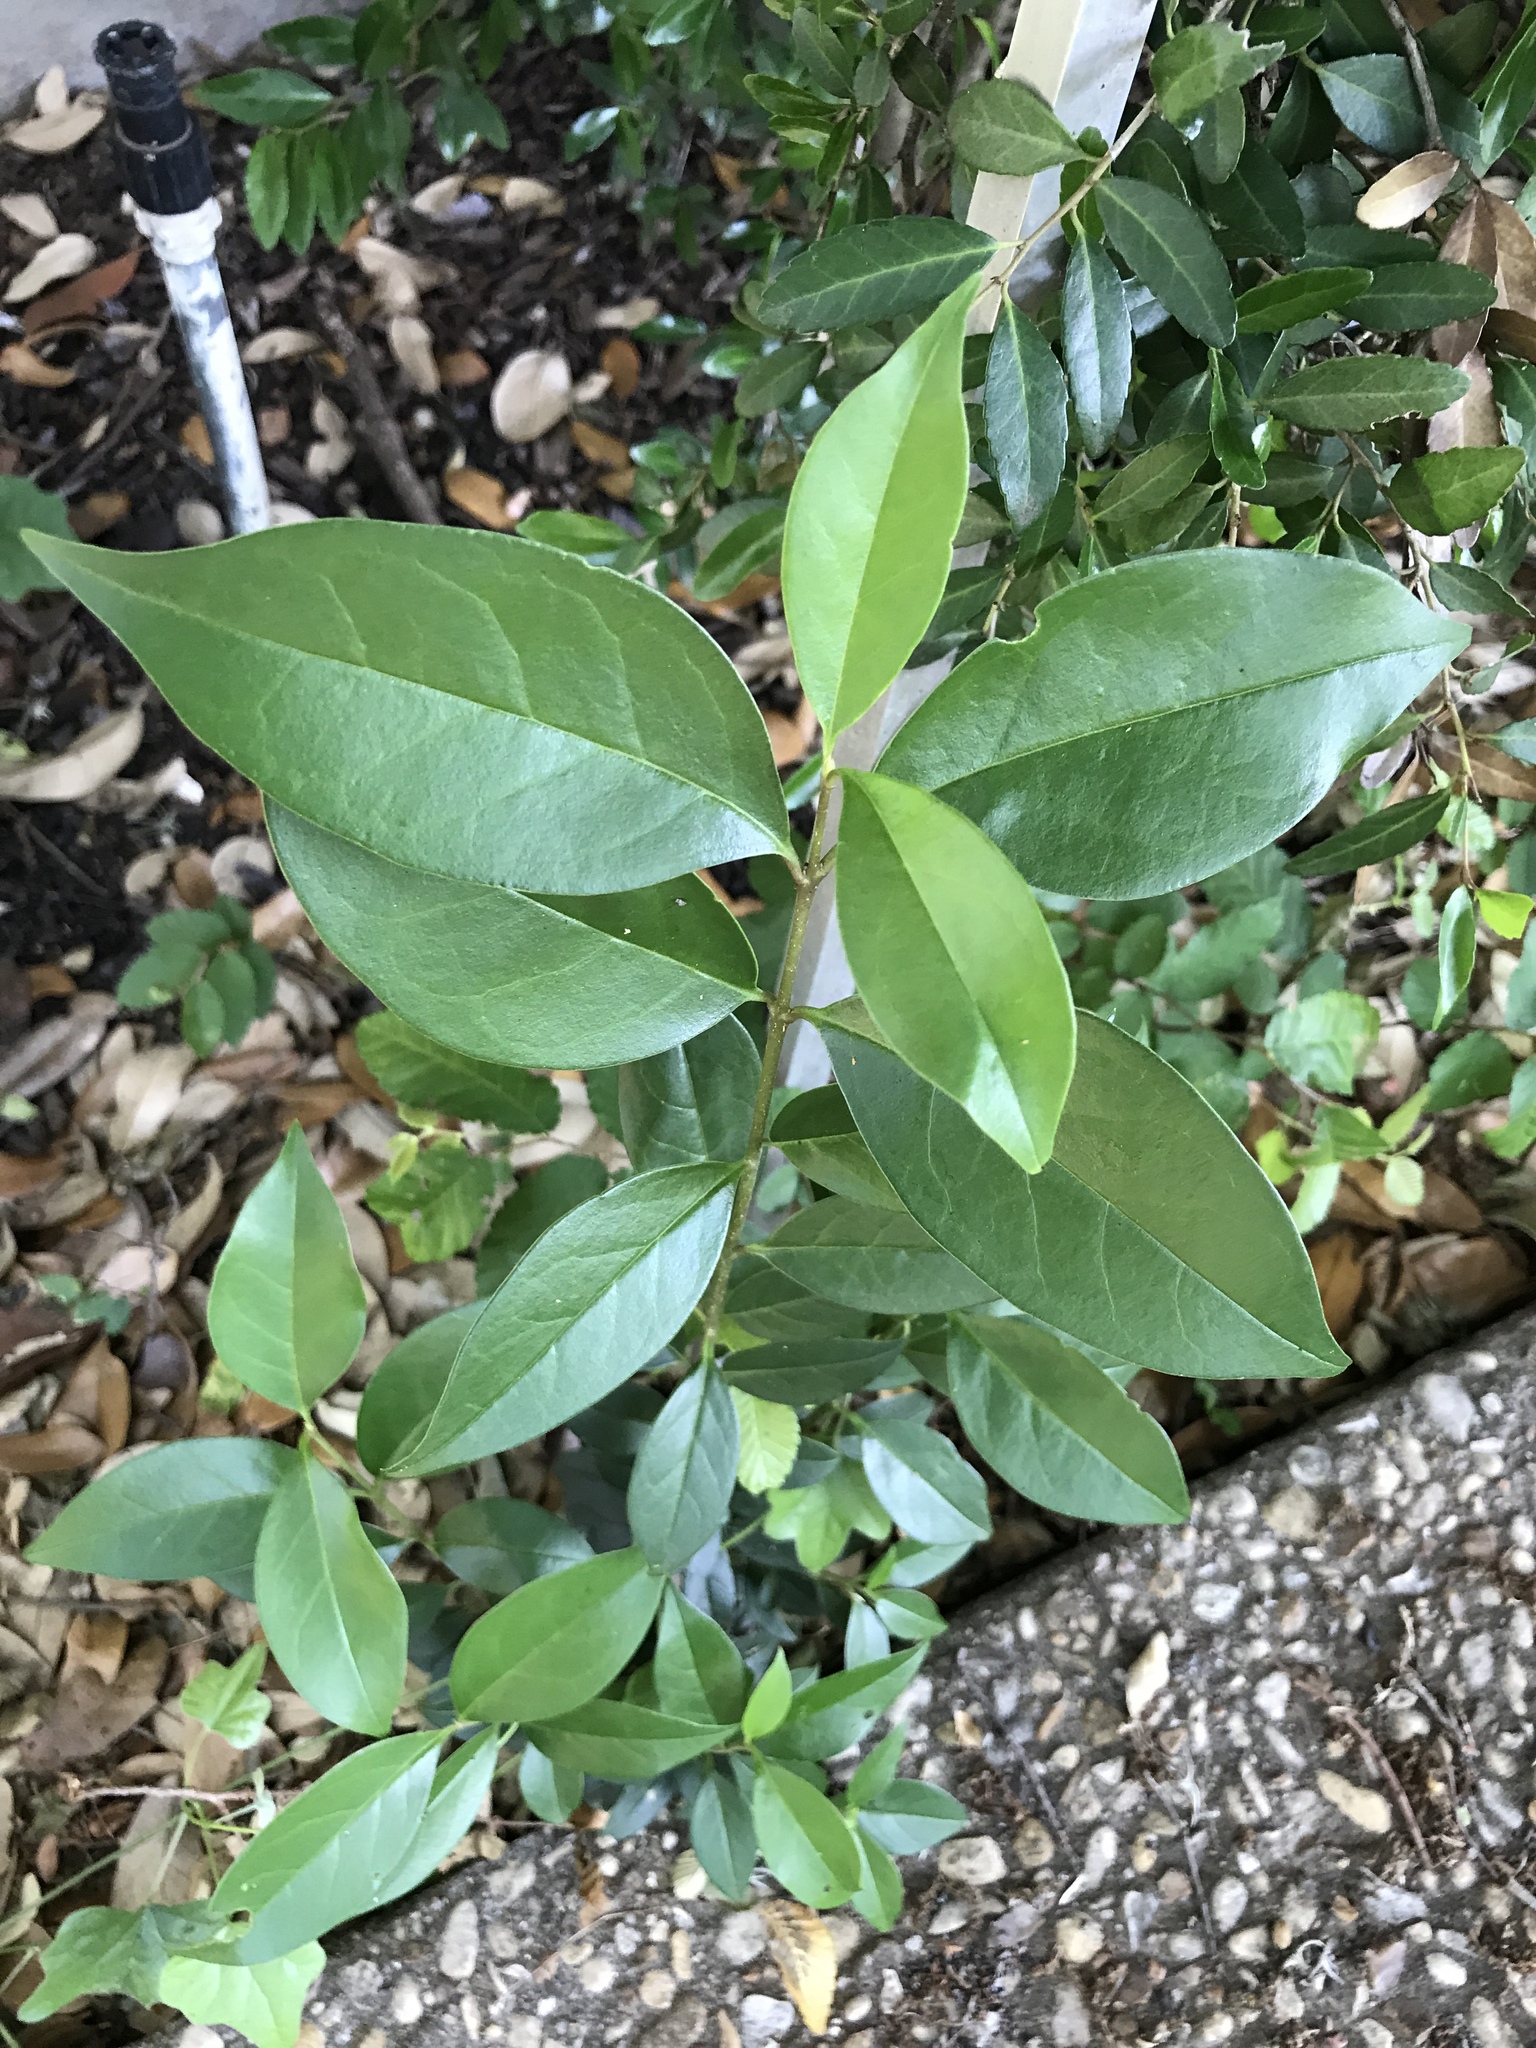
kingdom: Plantae
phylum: Tracheophyta
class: Magnoliopsida
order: Lamiales
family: Oleaceae
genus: Ligustrum
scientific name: Ligustrum lucidum
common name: Glossy privet
